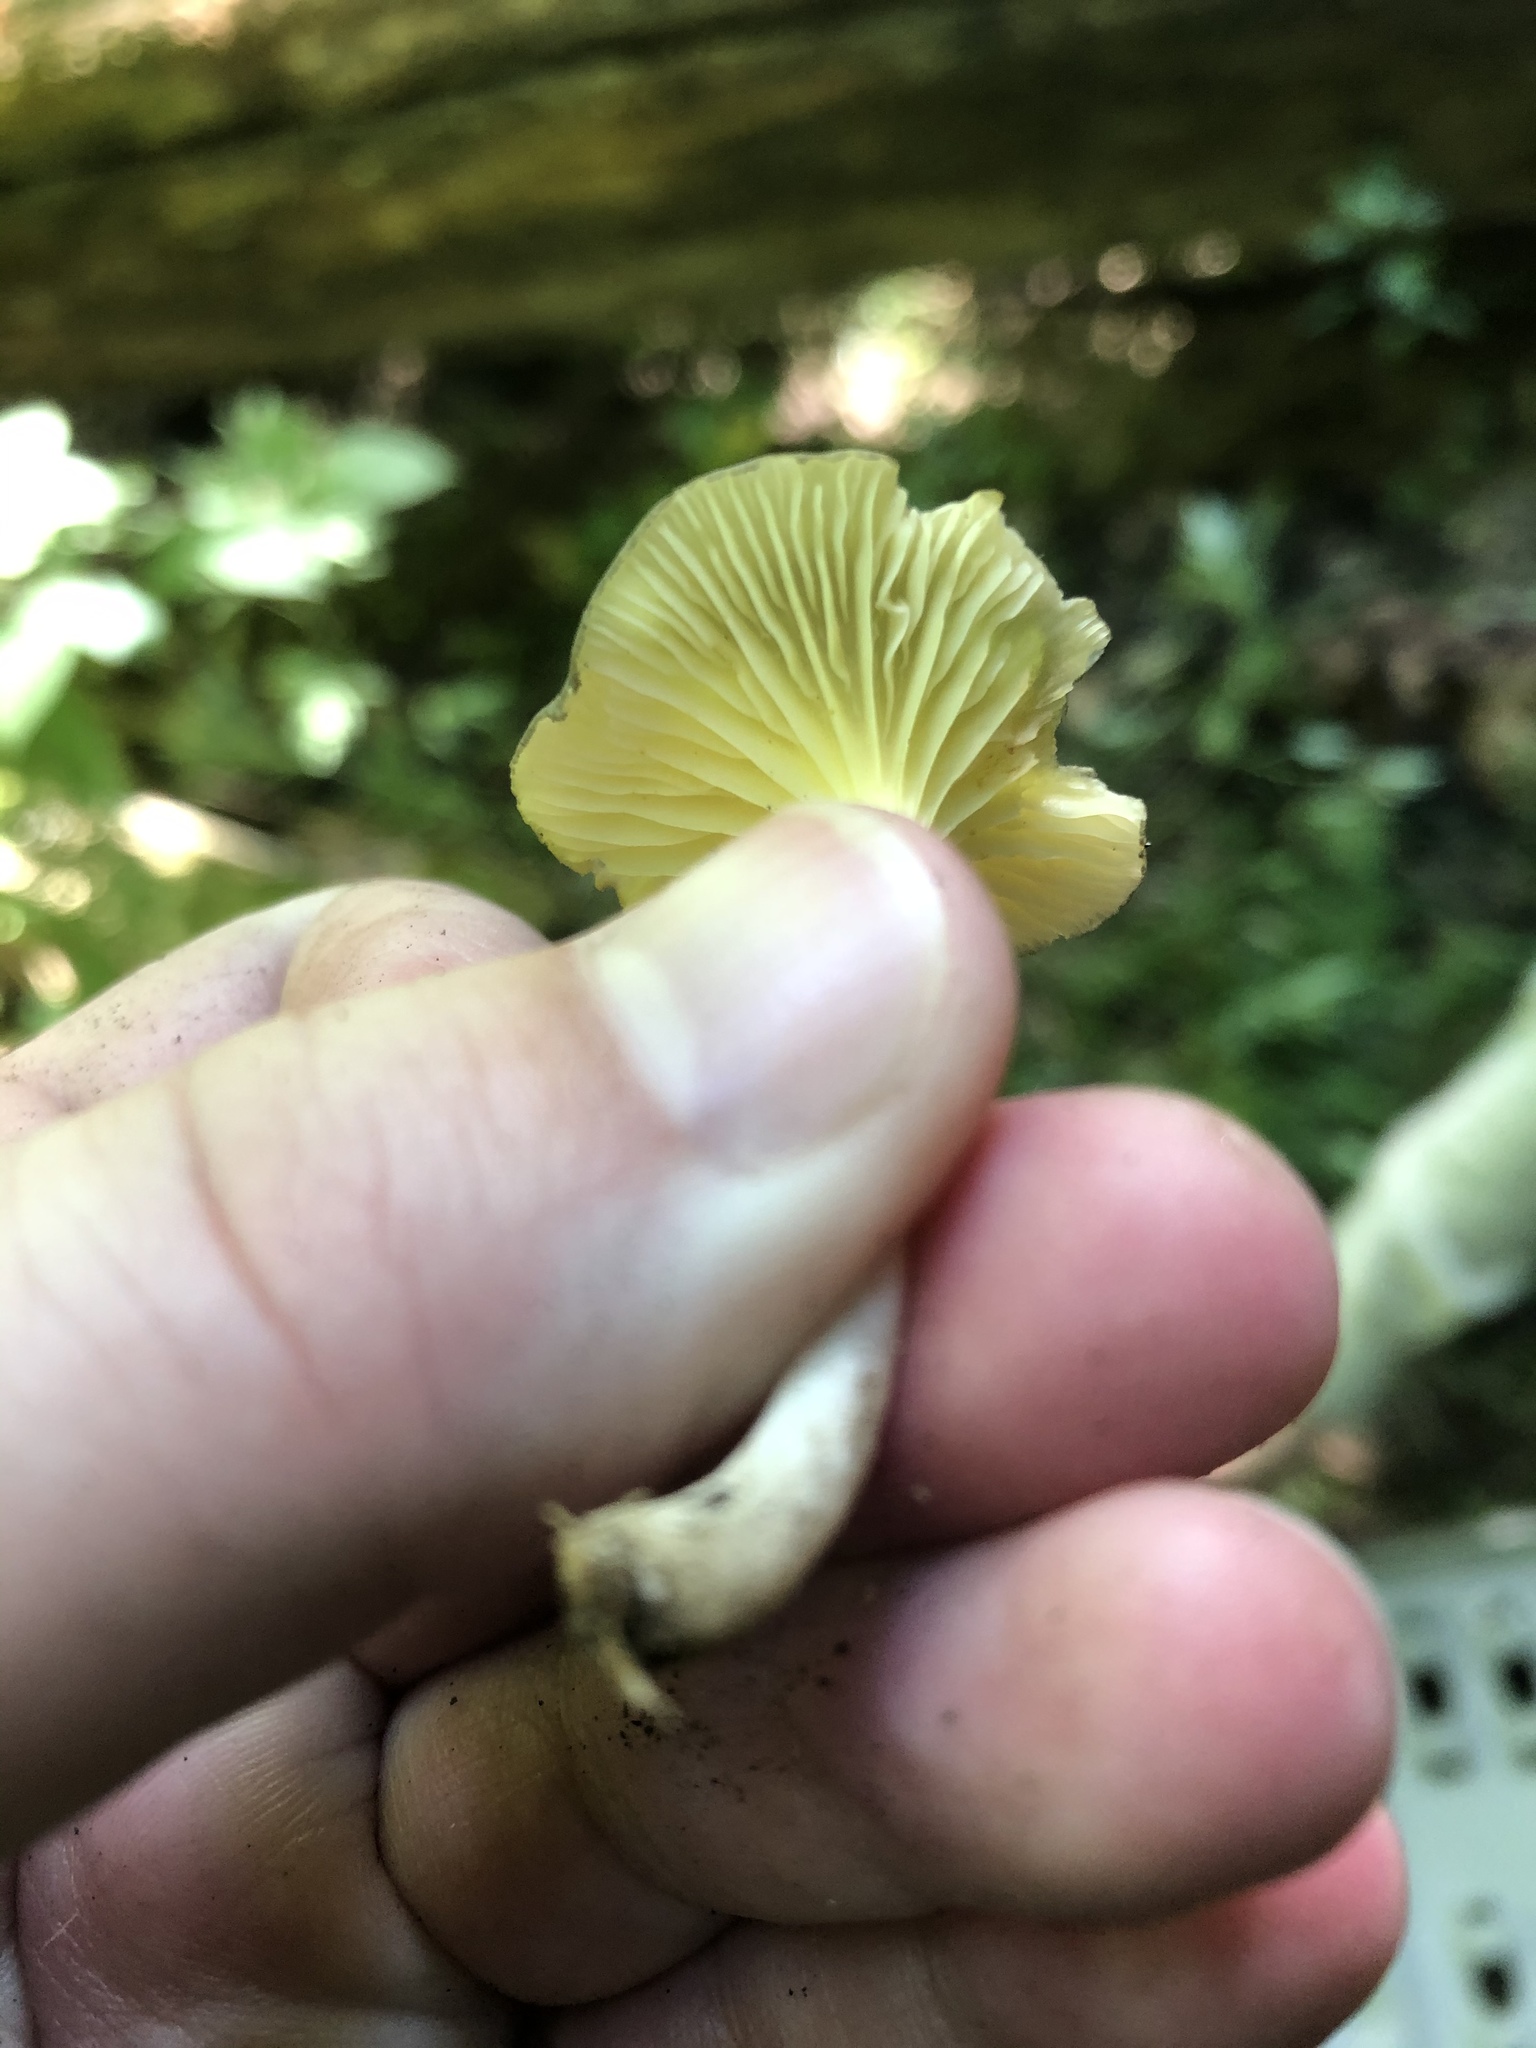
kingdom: Fungi
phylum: Basidiomycota
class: Agaricomycetes
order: Agaricales
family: Marasmiaceae
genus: Gerronema
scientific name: Gerronema strombodes
